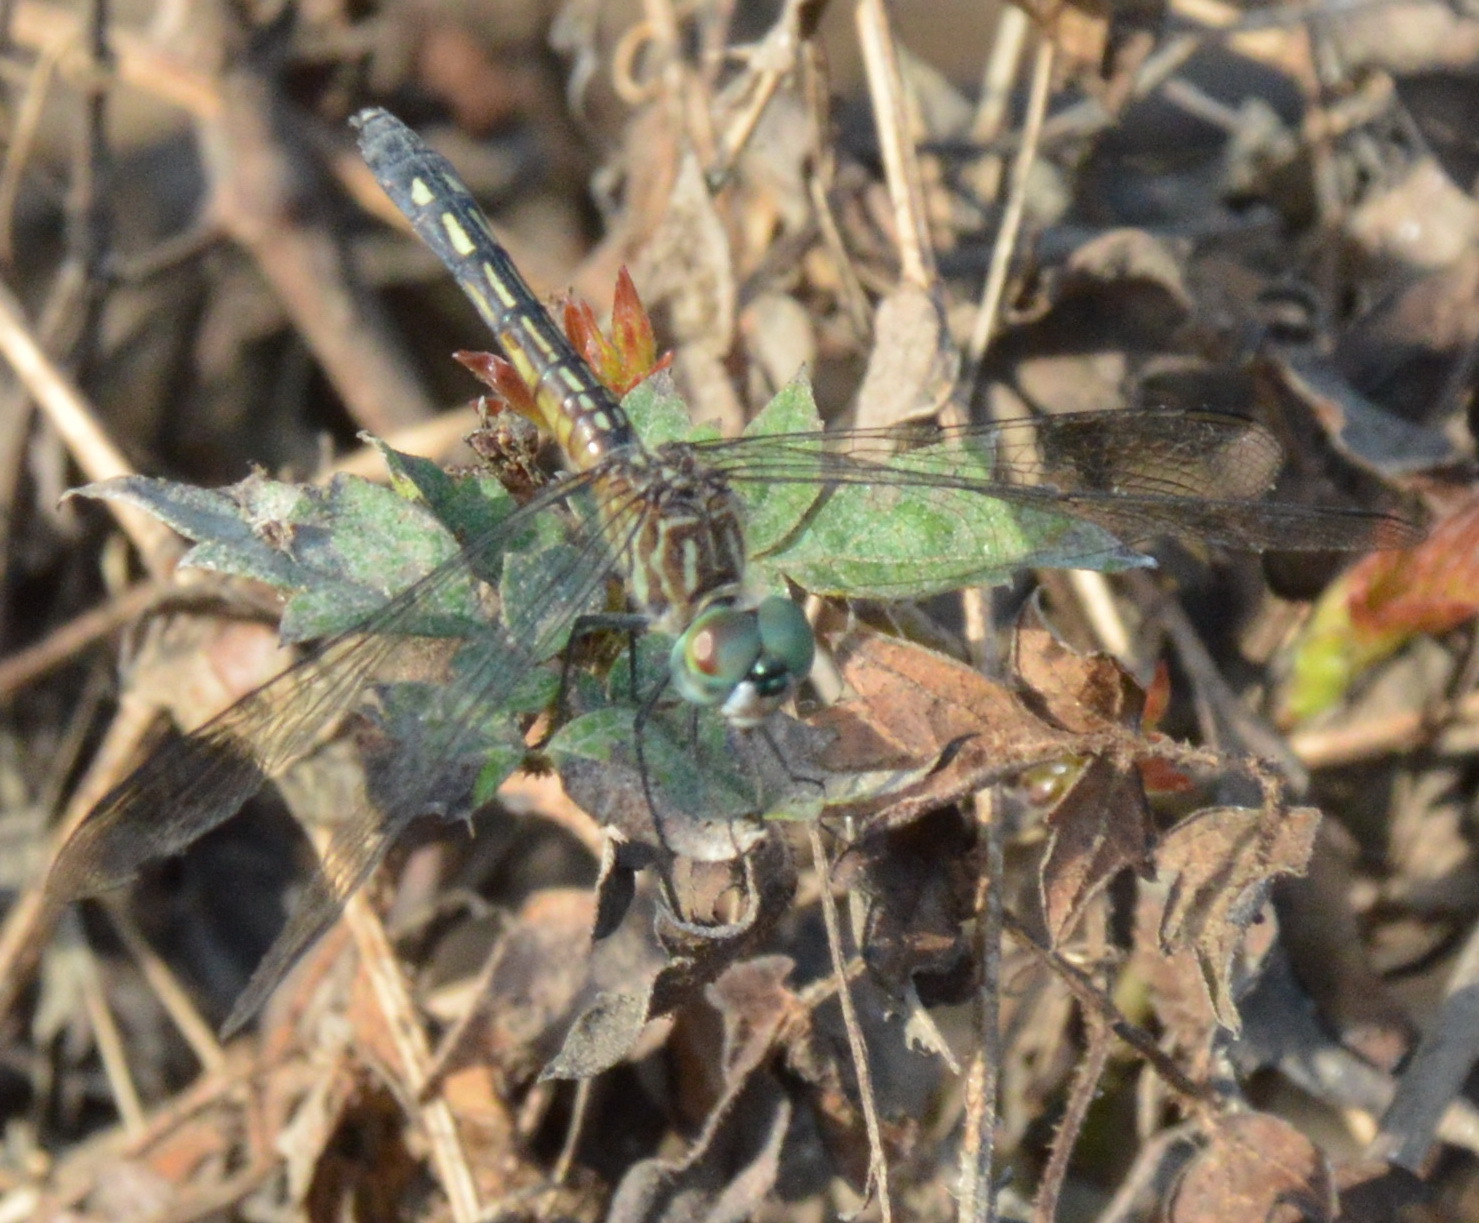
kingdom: Animalia
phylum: Arthropoda
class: Insecta
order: Odonata
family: Libellulidae
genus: Pachydiplax
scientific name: Pachydiplax longipennis
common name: Blue dasher
